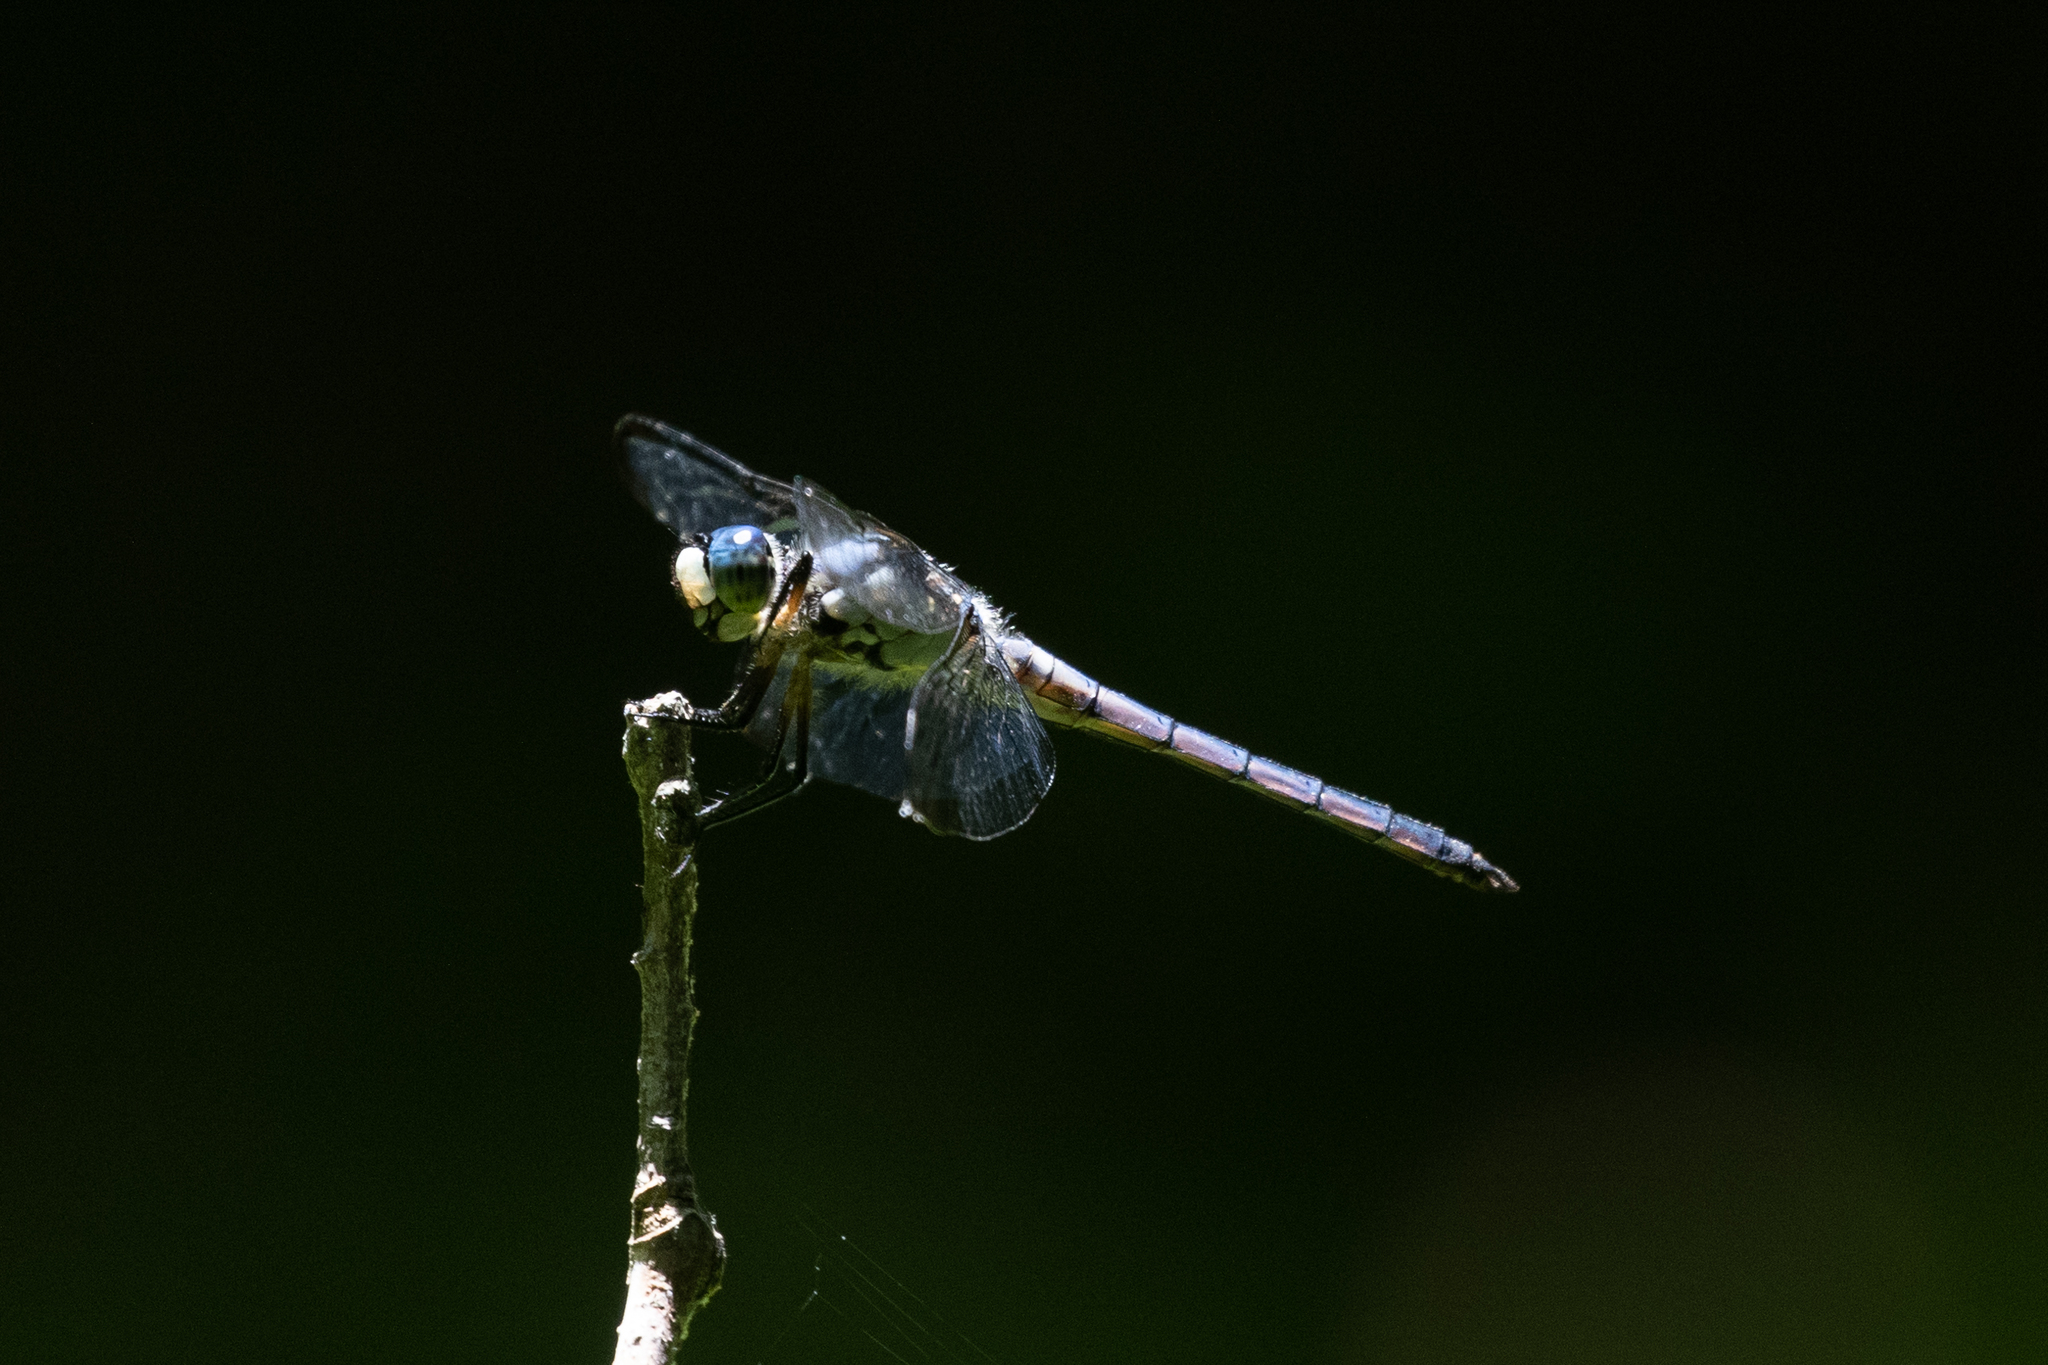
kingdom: Animalia
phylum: Arthropoda
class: Insecta
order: Odonata
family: Libellulidae
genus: Libellula
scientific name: Libellula vibrans
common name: Great blue skimmer
